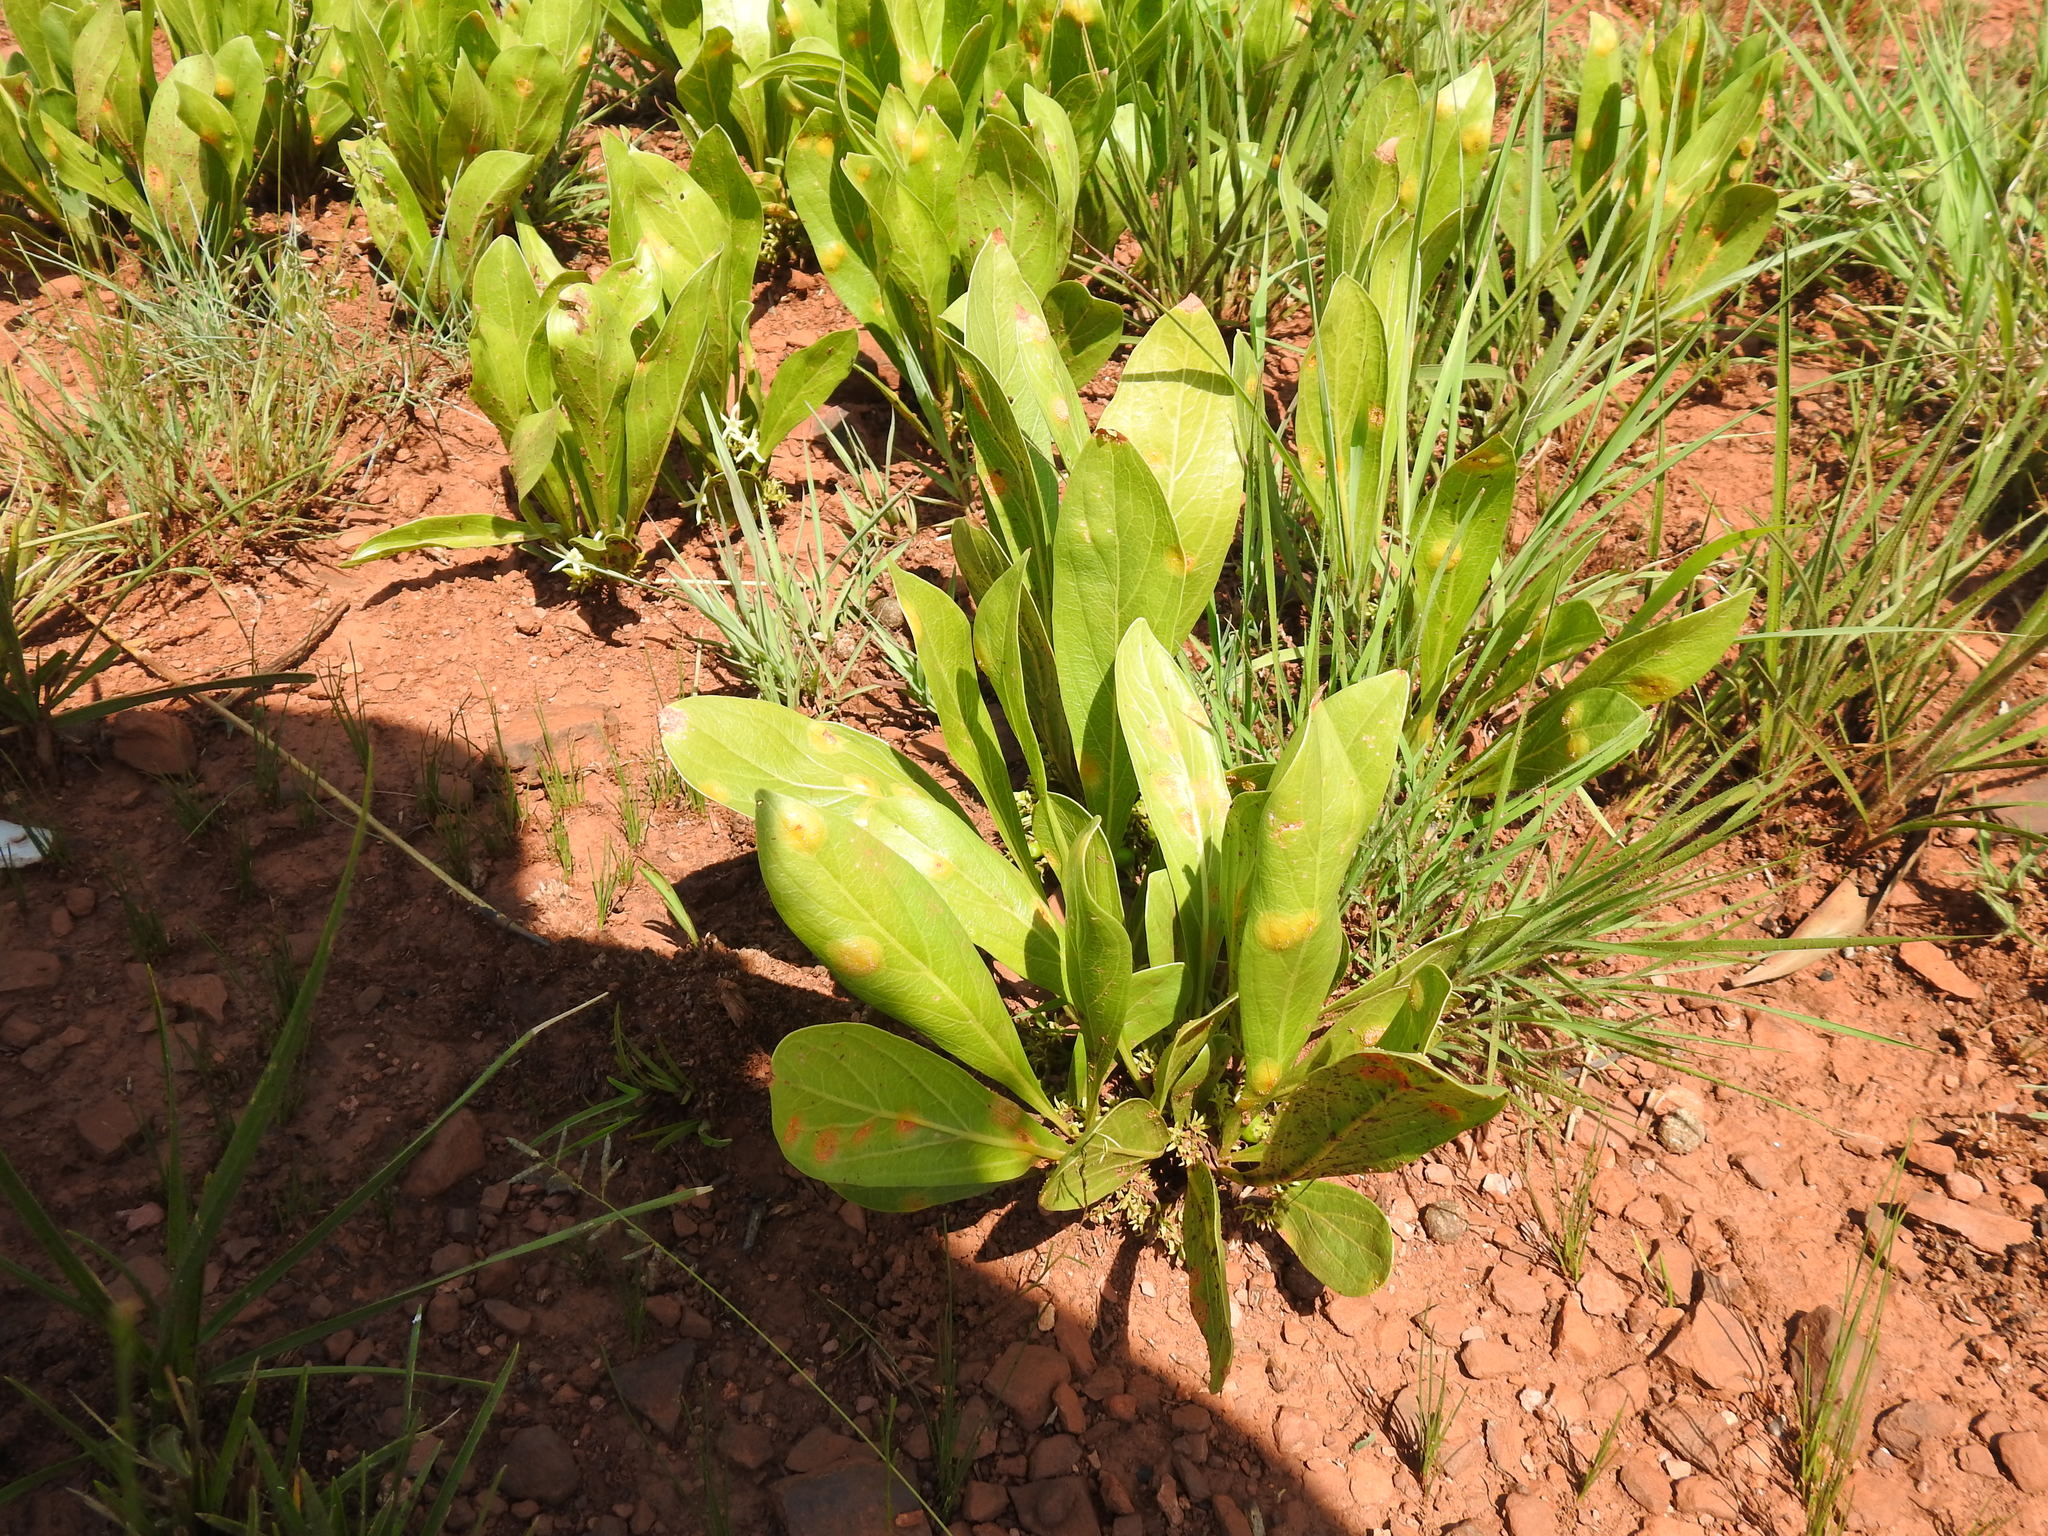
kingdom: Plantae
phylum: Tracheophyta
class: Magnoliopsida
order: Gentianales
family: Rubiaceae
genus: Pygmaeothamnus
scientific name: Pygmaeothamnus zeyheri
